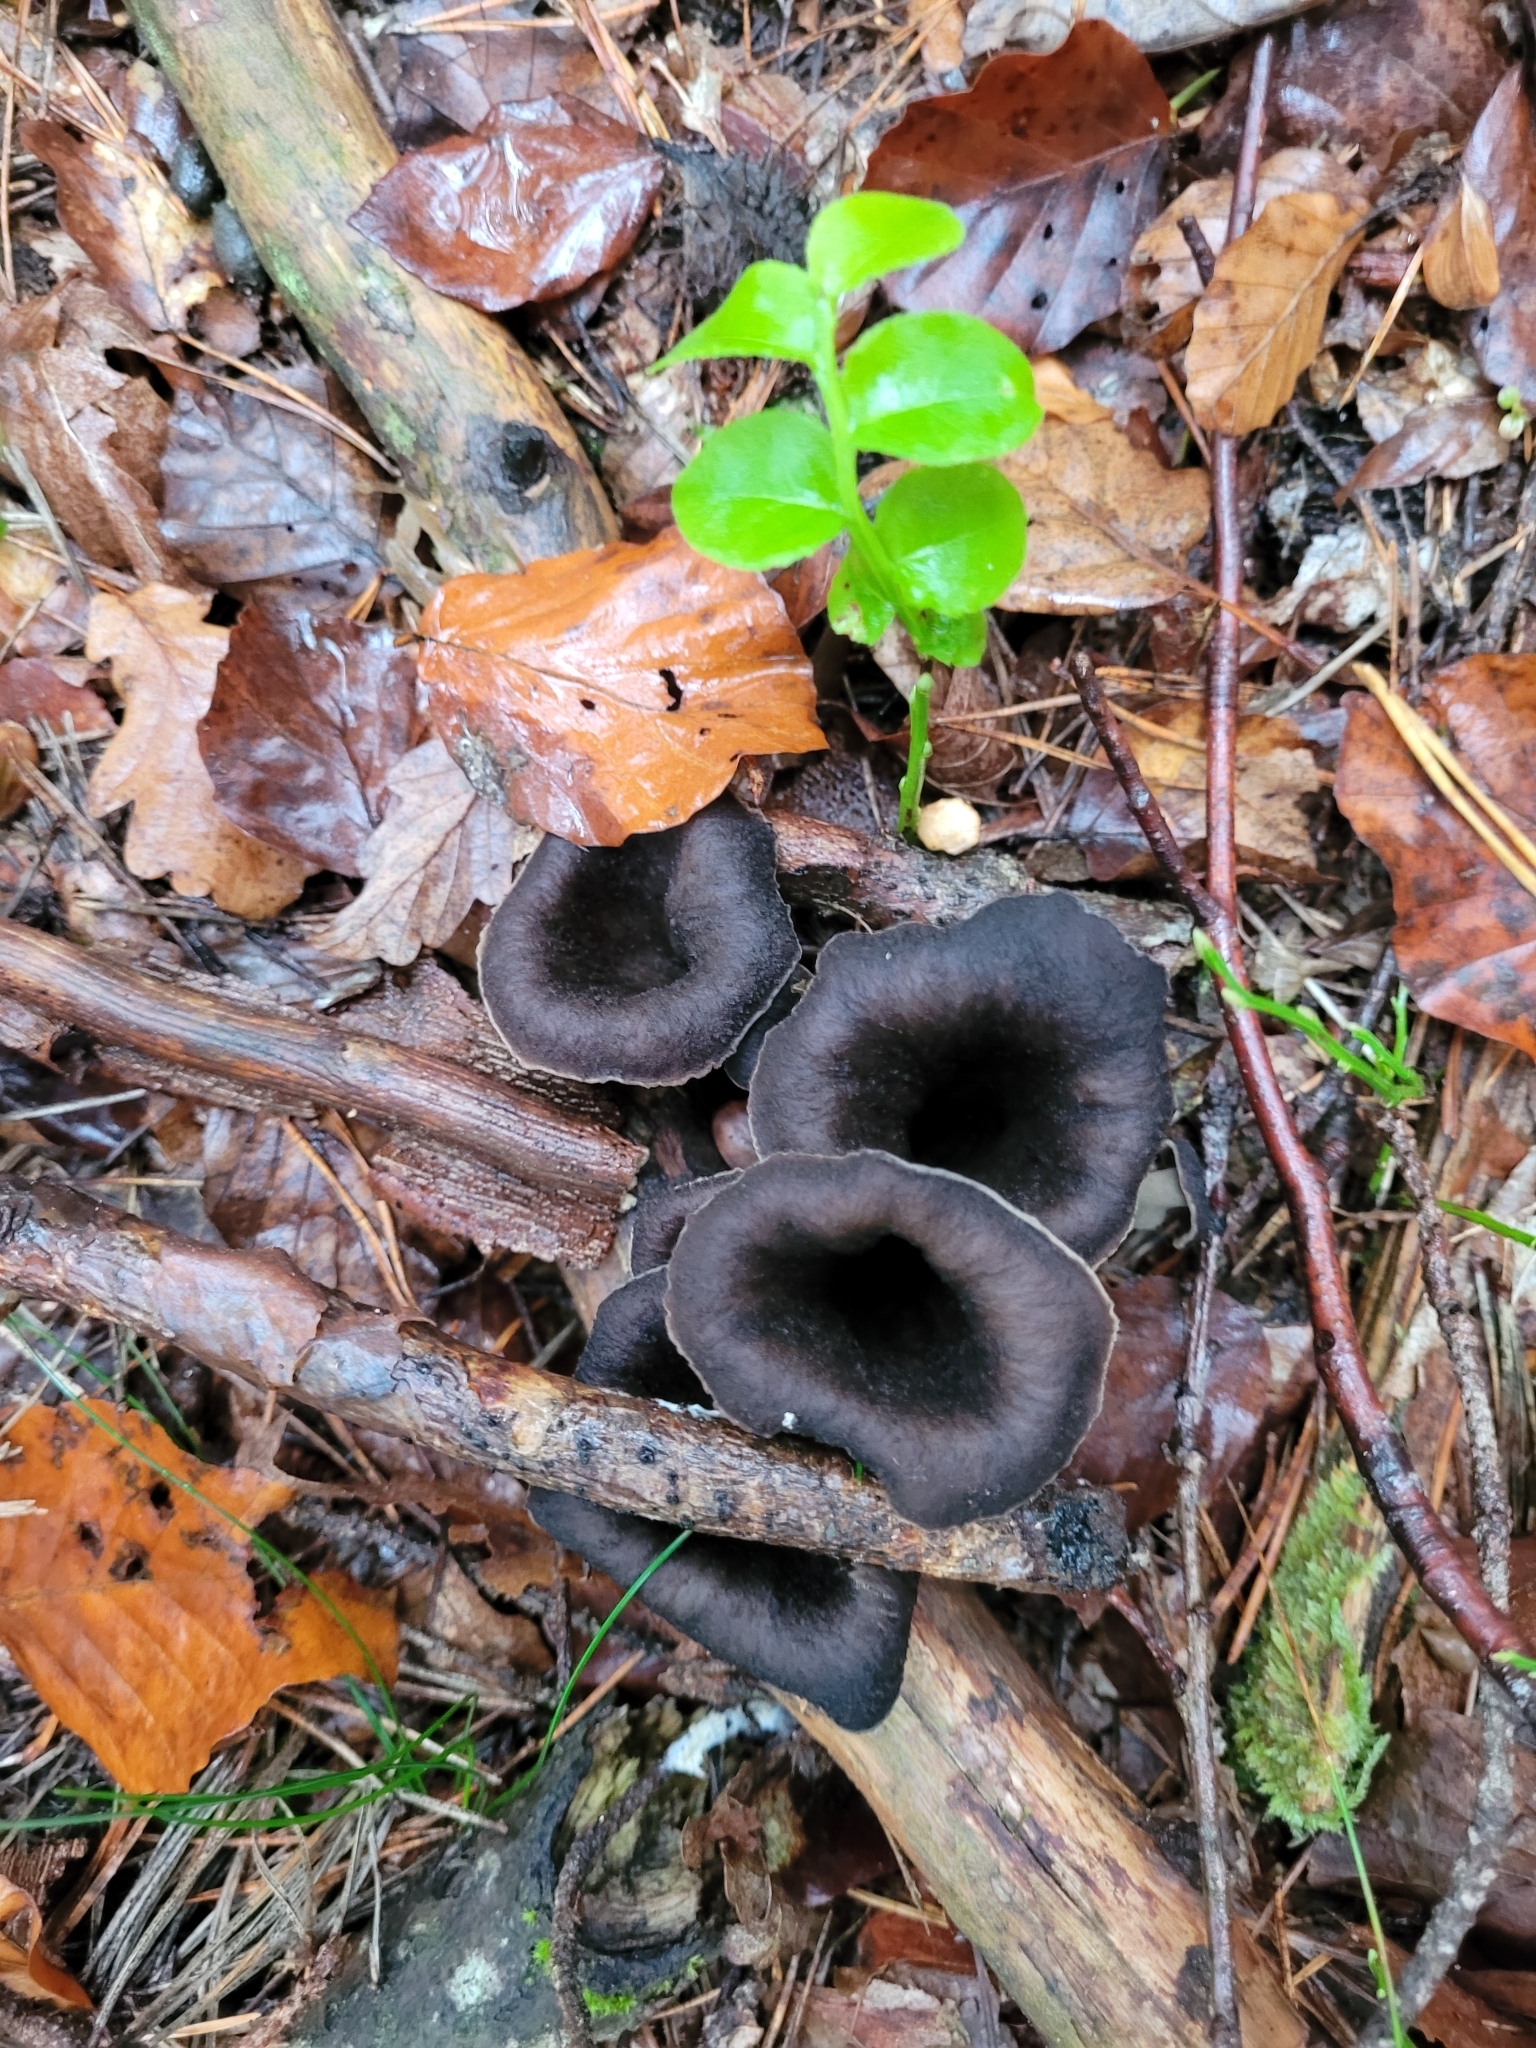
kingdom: Fungi
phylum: Basidiomycota
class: Agaricomycetes
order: Cantharellales
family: Hydnaceae
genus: Craterellus
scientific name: Craterellus cornucopioides
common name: Horn of plenty
